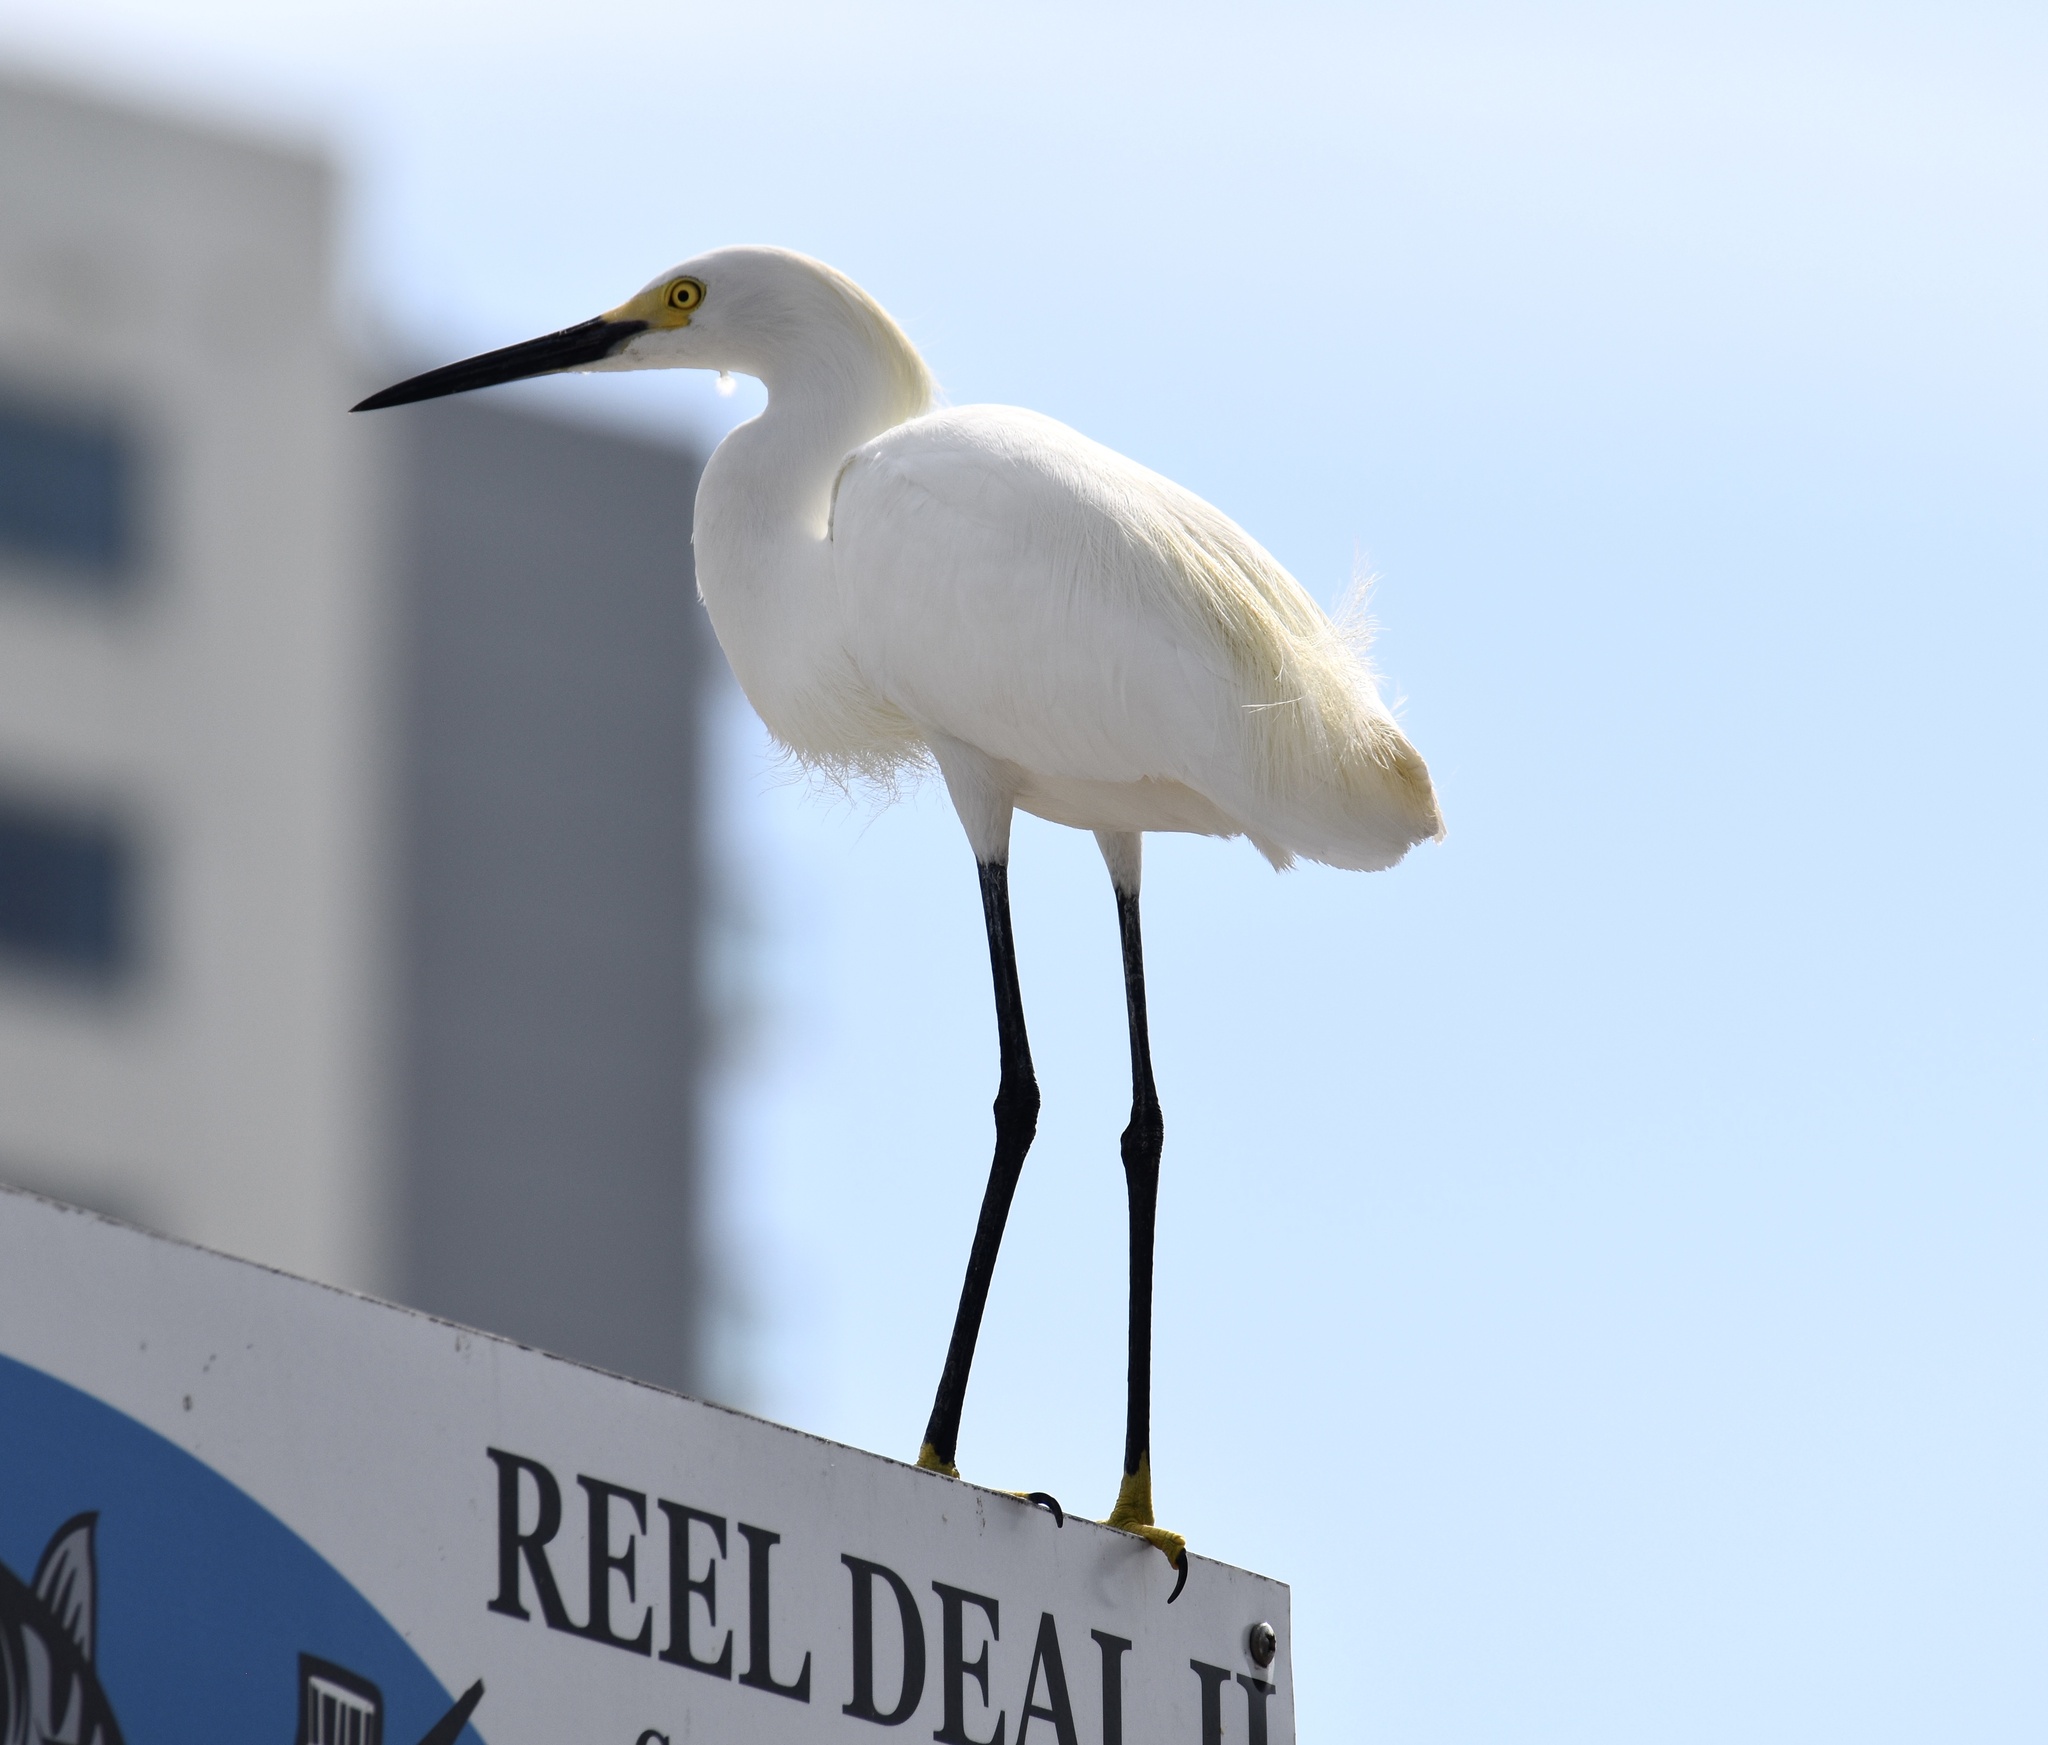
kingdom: Animalia
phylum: Chordata
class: Aves
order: Pelecaniformes
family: Ardeidae
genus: Egretta
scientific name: Egretta thula
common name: Snowy egret
